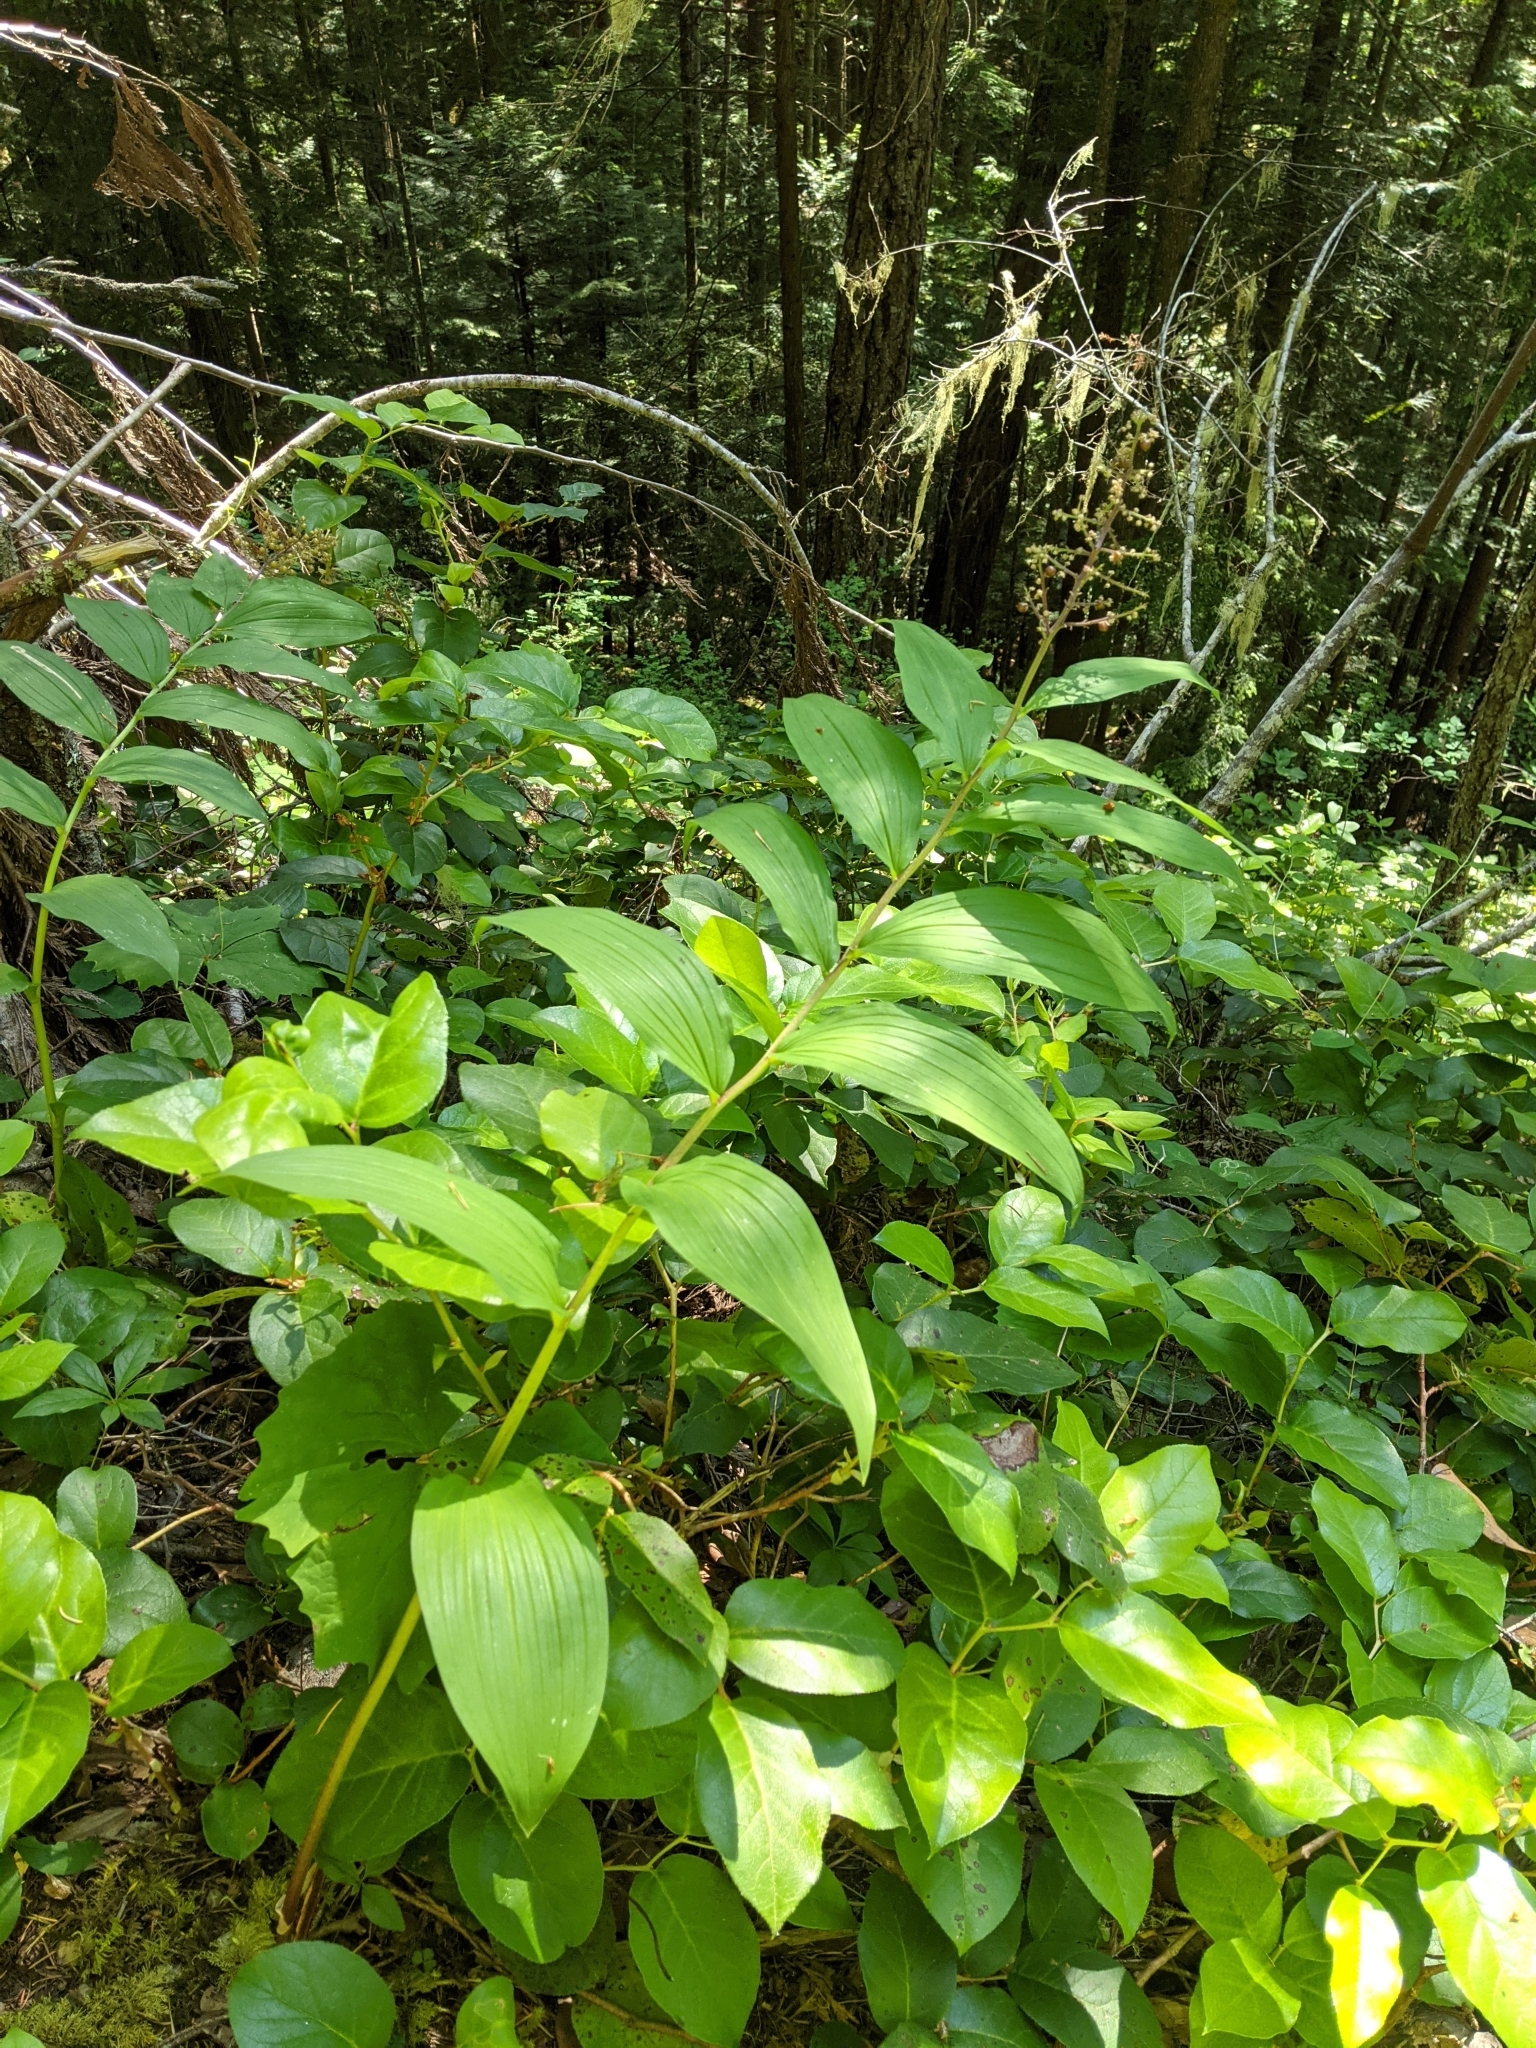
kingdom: Plantae
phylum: Tracheophyta
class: Liliopsida
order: Asparagales
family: Asparagaceae
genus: Maianthemum
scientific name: Maianthemum racemosum
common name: False spikenard
